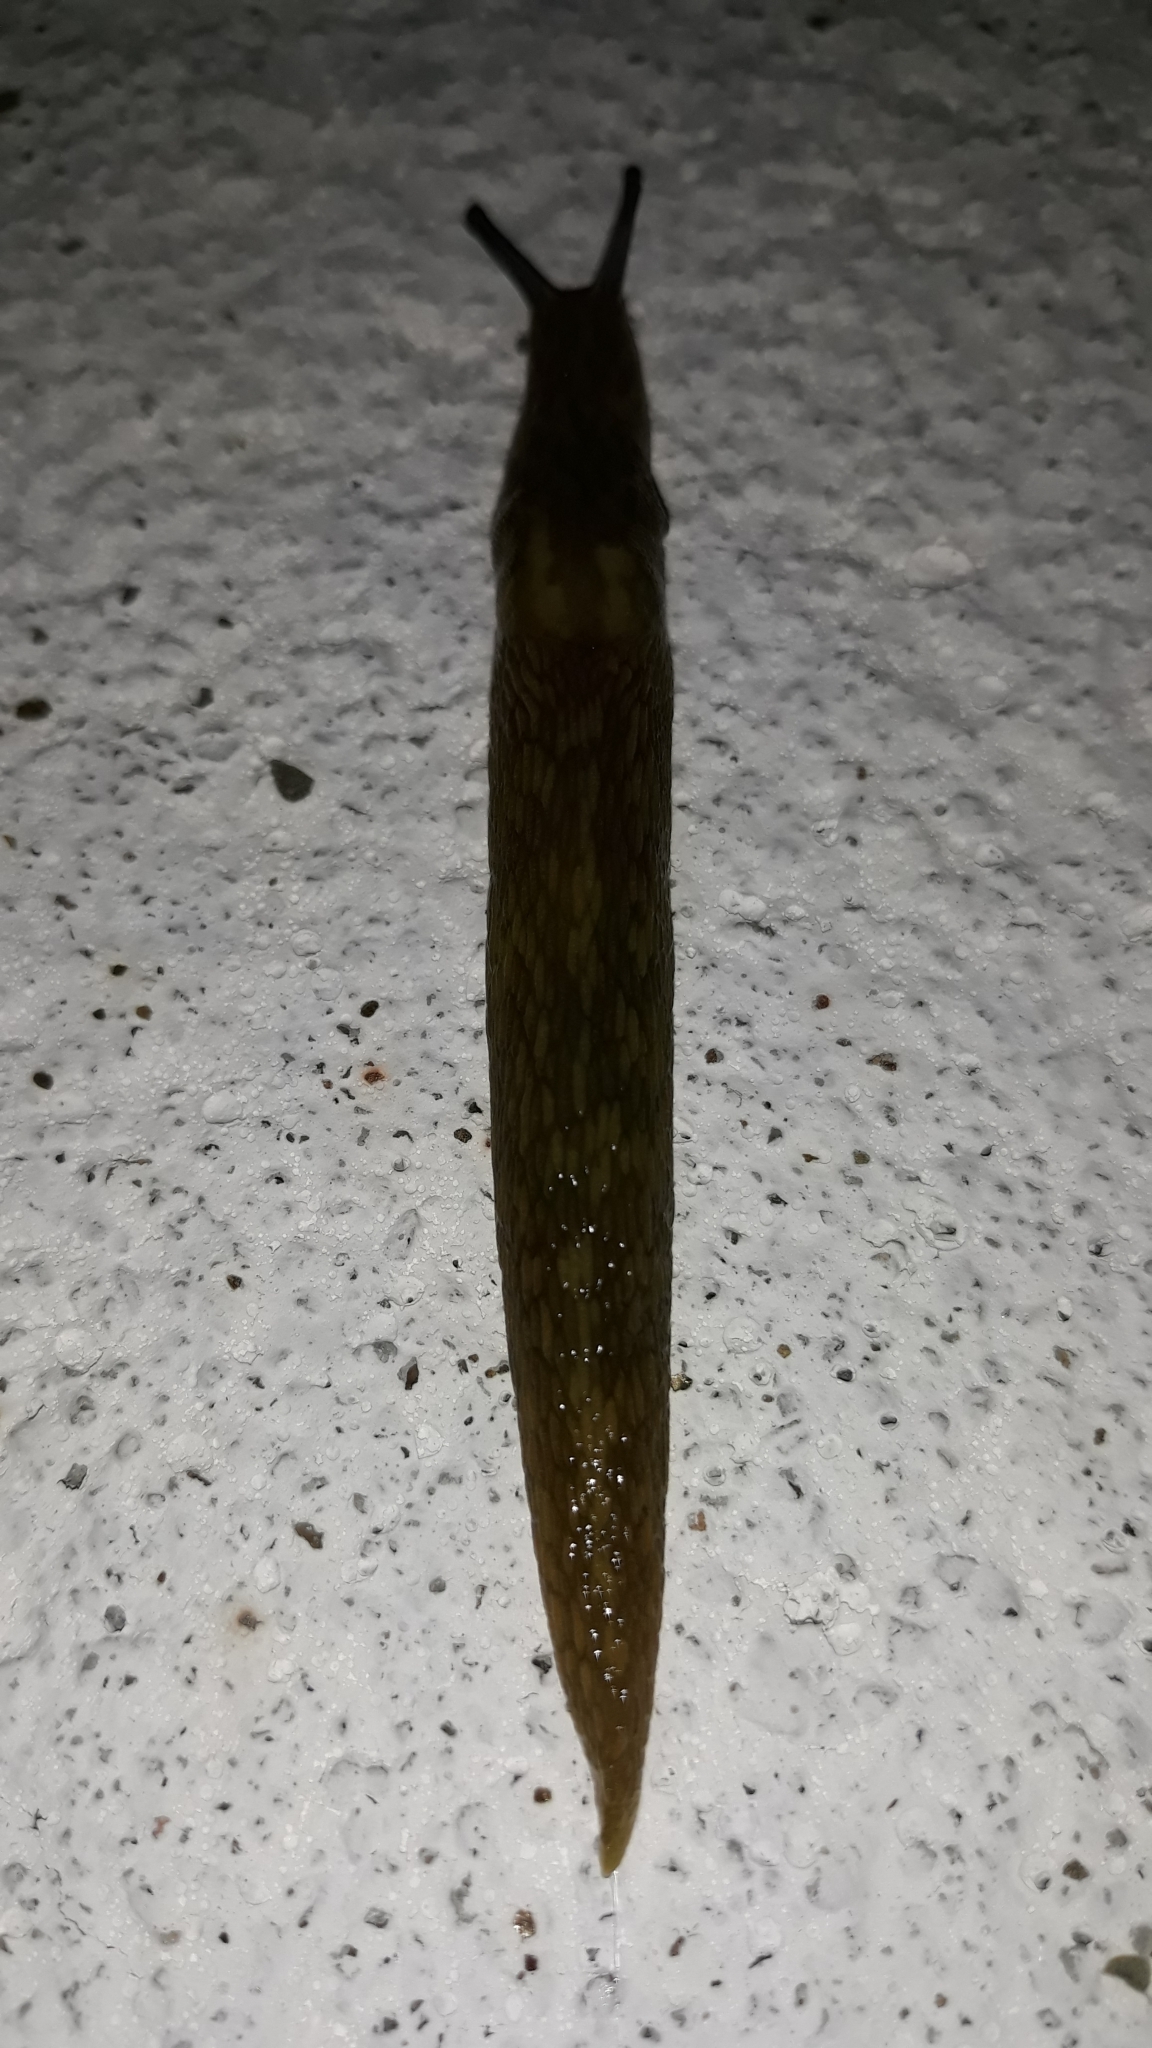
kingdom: Animalia
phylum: Mollusca
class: Gastropoda
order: Stylommatophora
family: Limacidae
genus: Limacus
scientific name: Limacus flavus
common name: Yellow gardenslug
